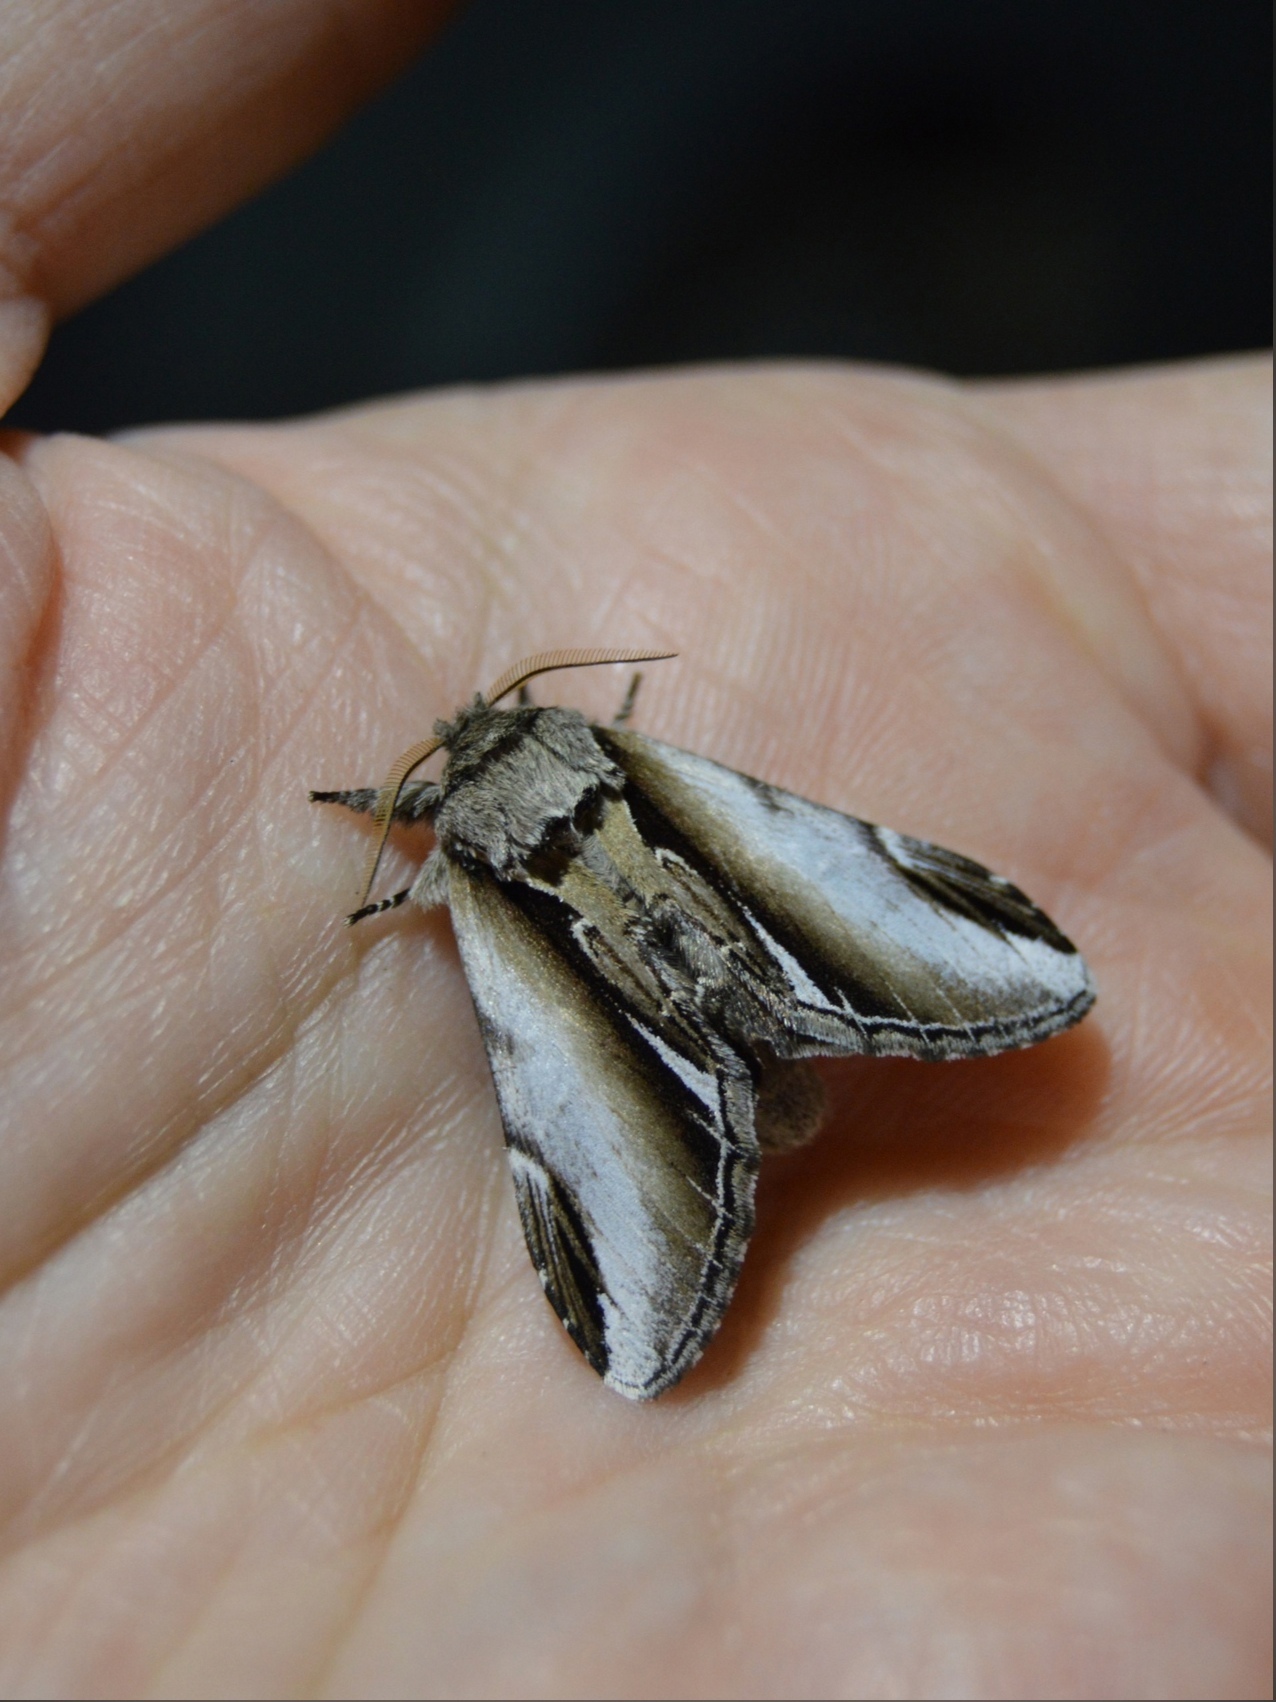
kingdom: Animalia
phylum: Arthropoda
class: Insecta
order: Lepidoptera
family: Notodontidae
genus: Pheosia
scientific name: Pheosia gnoma
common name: Lesser swallow prominent
